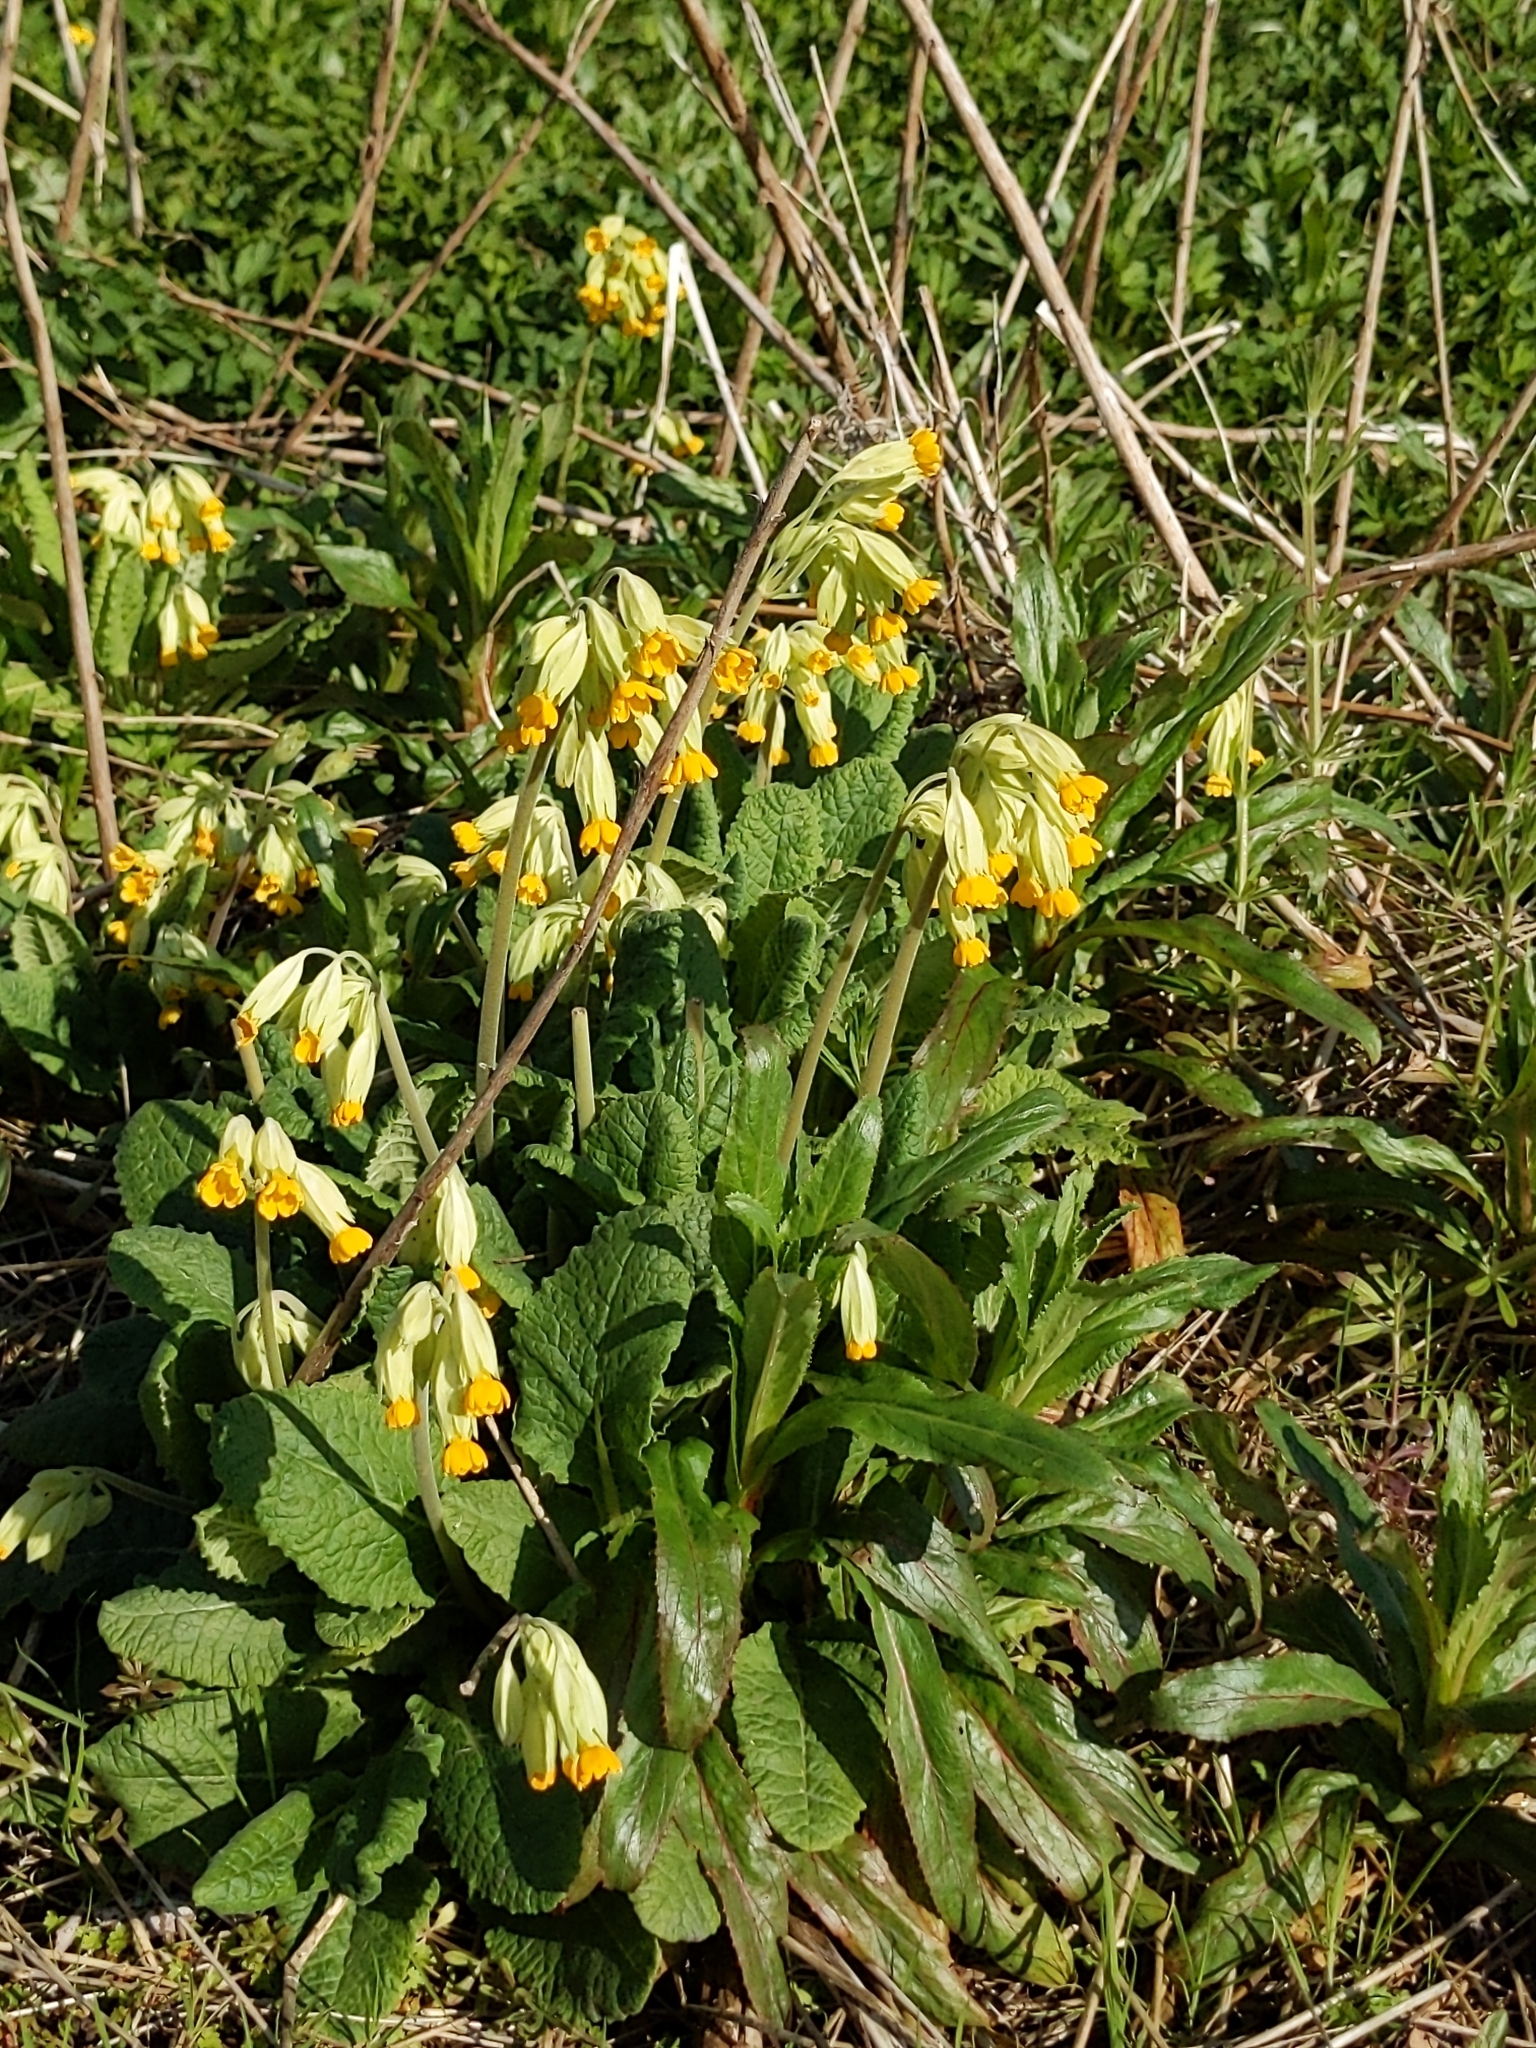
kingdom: Plantae
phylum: Tracheophyta
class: Magnoliopsida
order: Ericales
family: Primulaceae
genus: Primula
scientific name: Primula veris
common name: Cowslip
